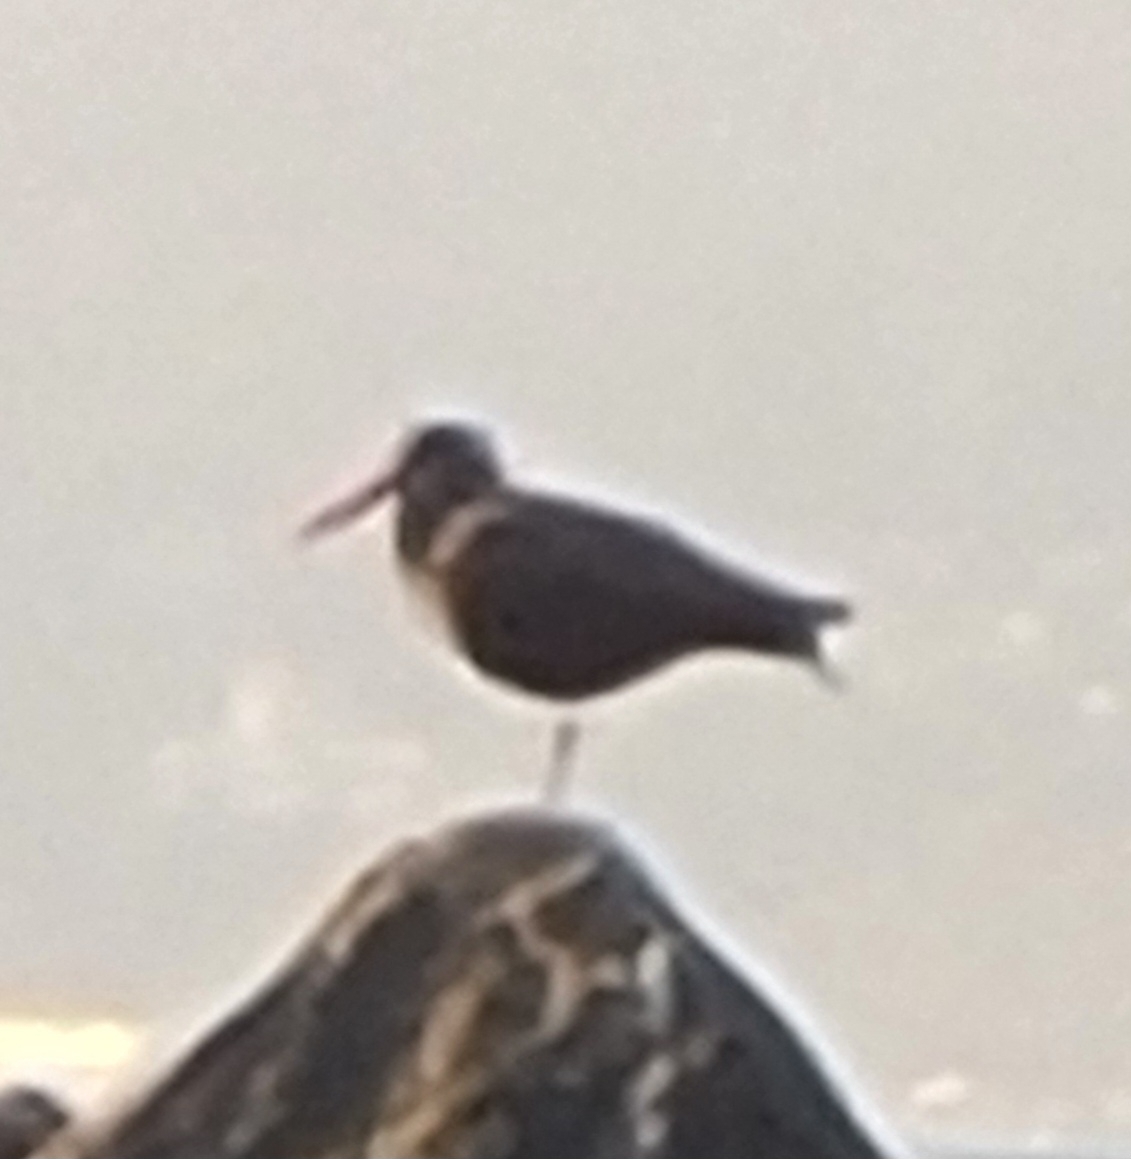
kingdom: Animalia
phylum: Chordata
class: Aves
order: Charadriiformes
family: Haematopodidae
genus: Haematopus
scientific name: Haematopus bachmani
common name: Black oystercatcher
